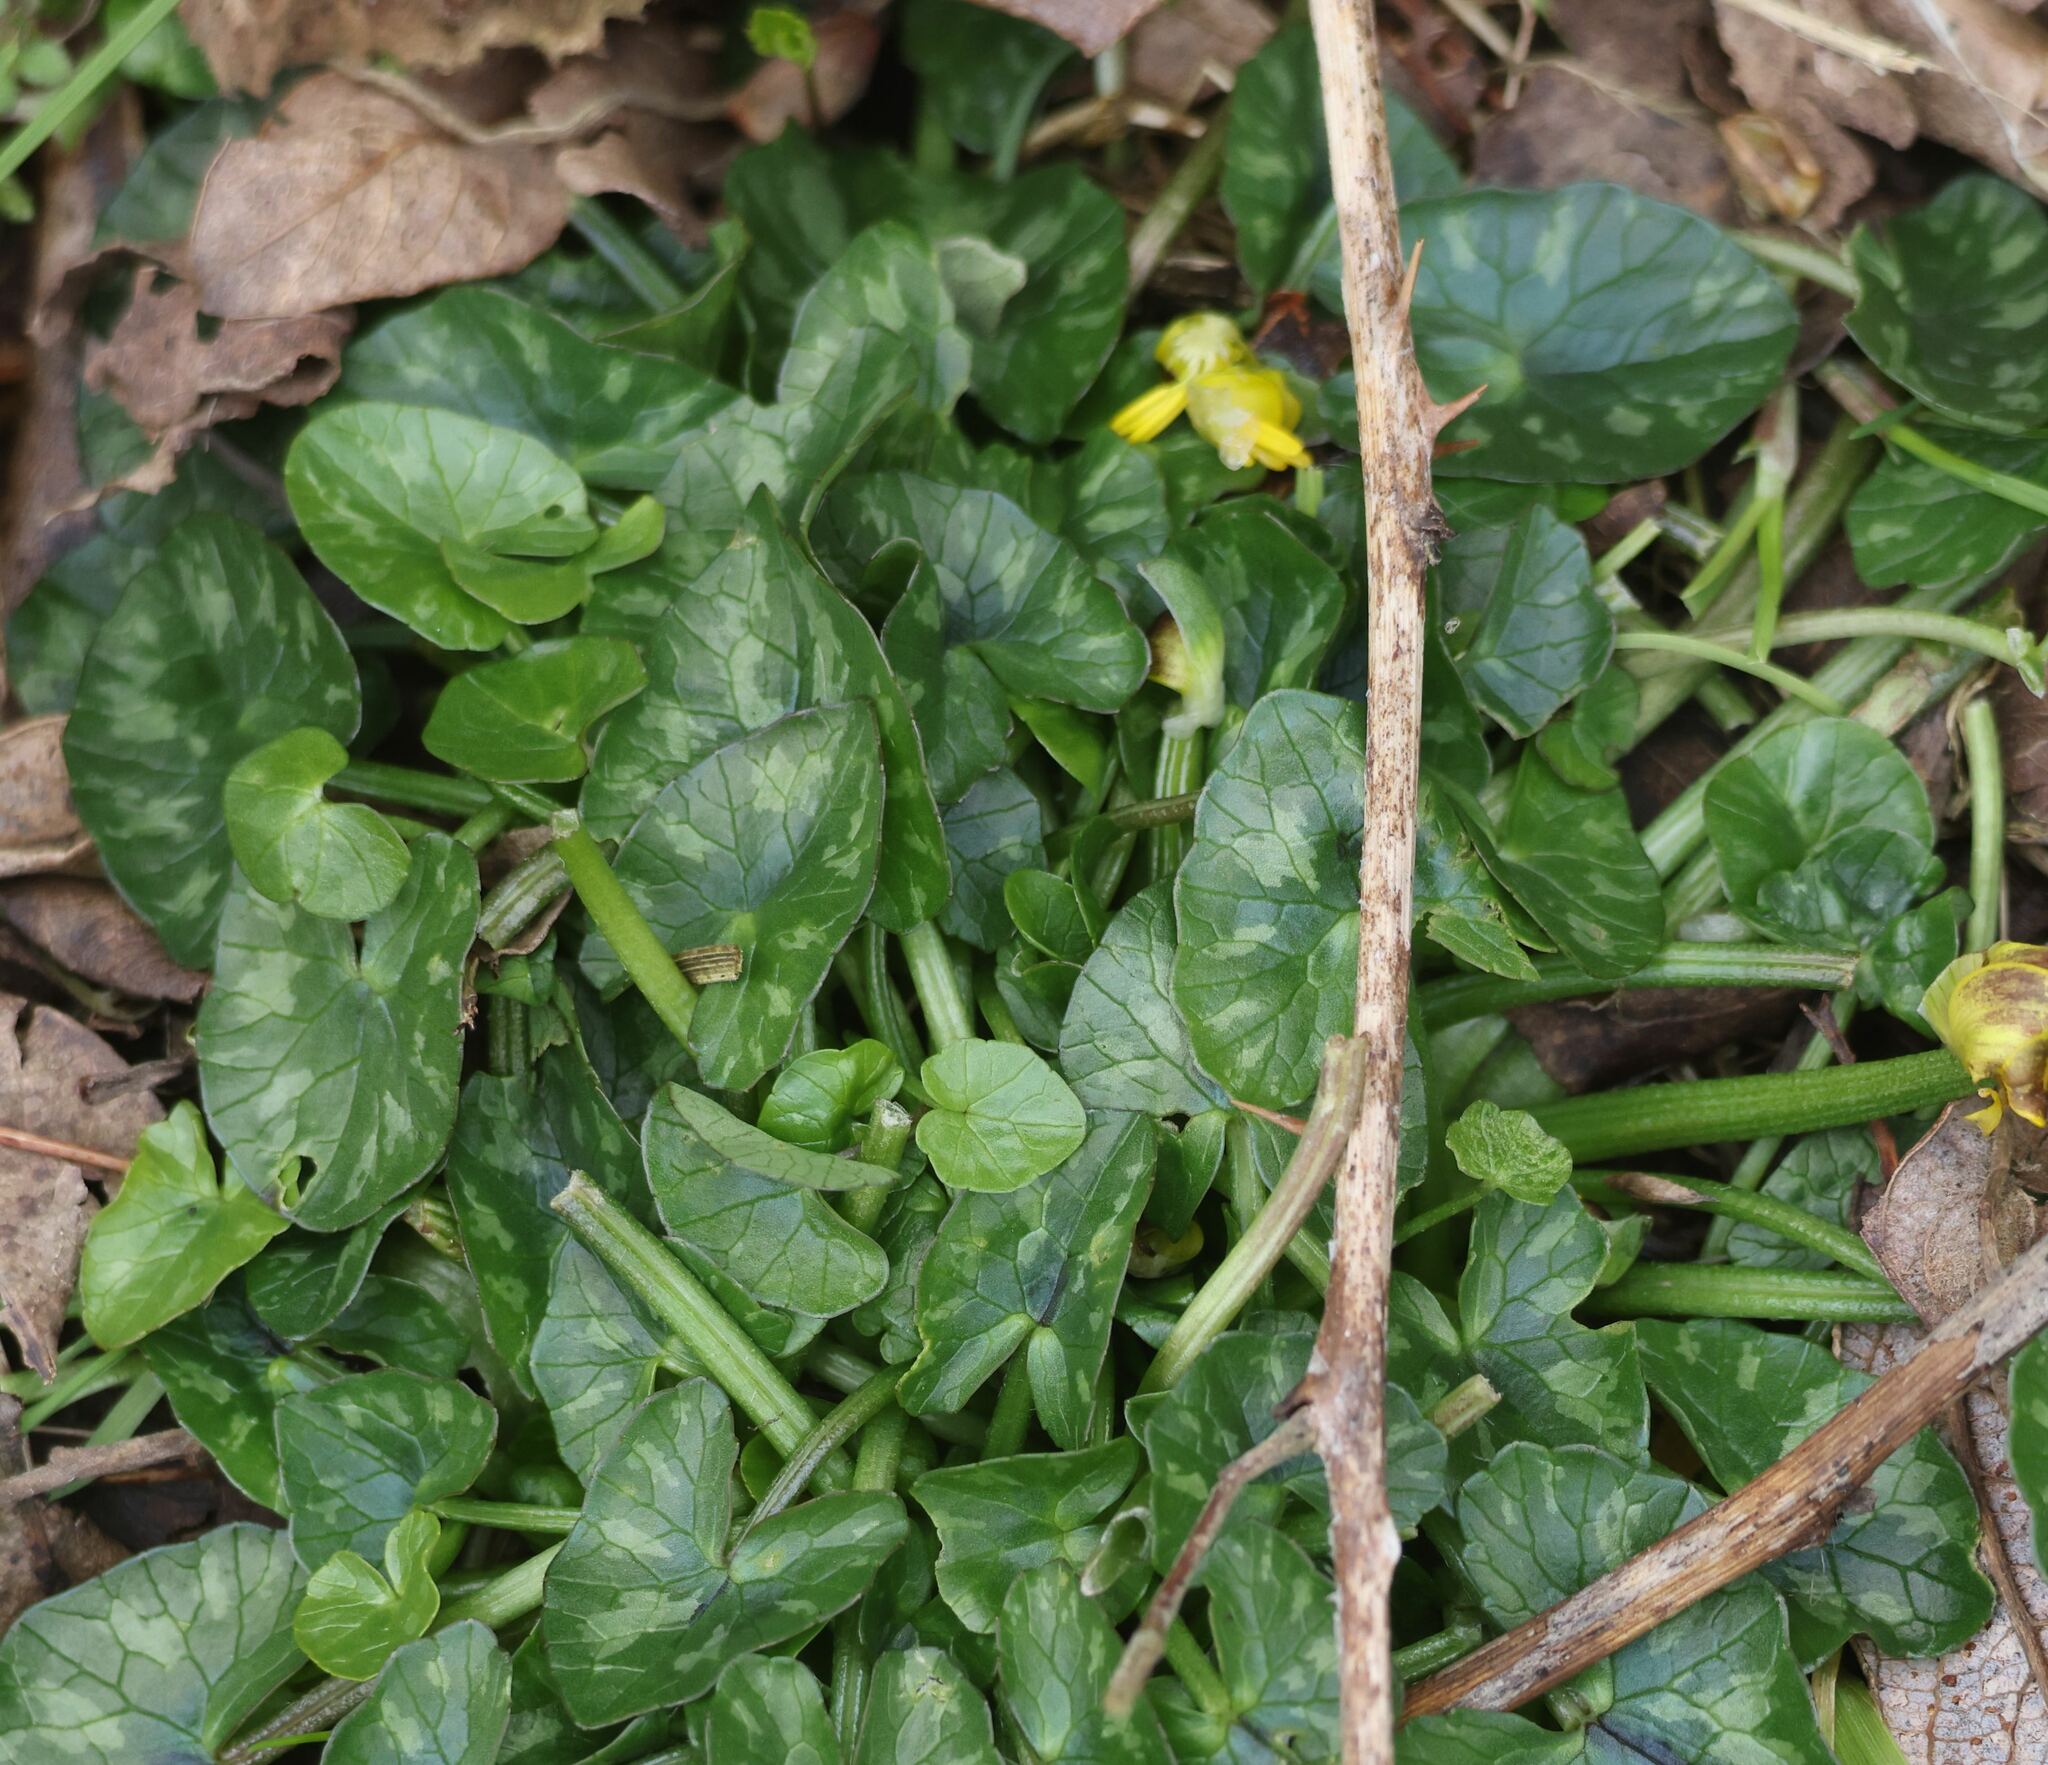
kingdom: Plantae
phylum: Tracheophyta
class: Magnoliopsida
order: Ranunculales
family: Ranunculaceae
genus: Ficaria
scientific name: Ficaria verna
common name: Lesser celandine
